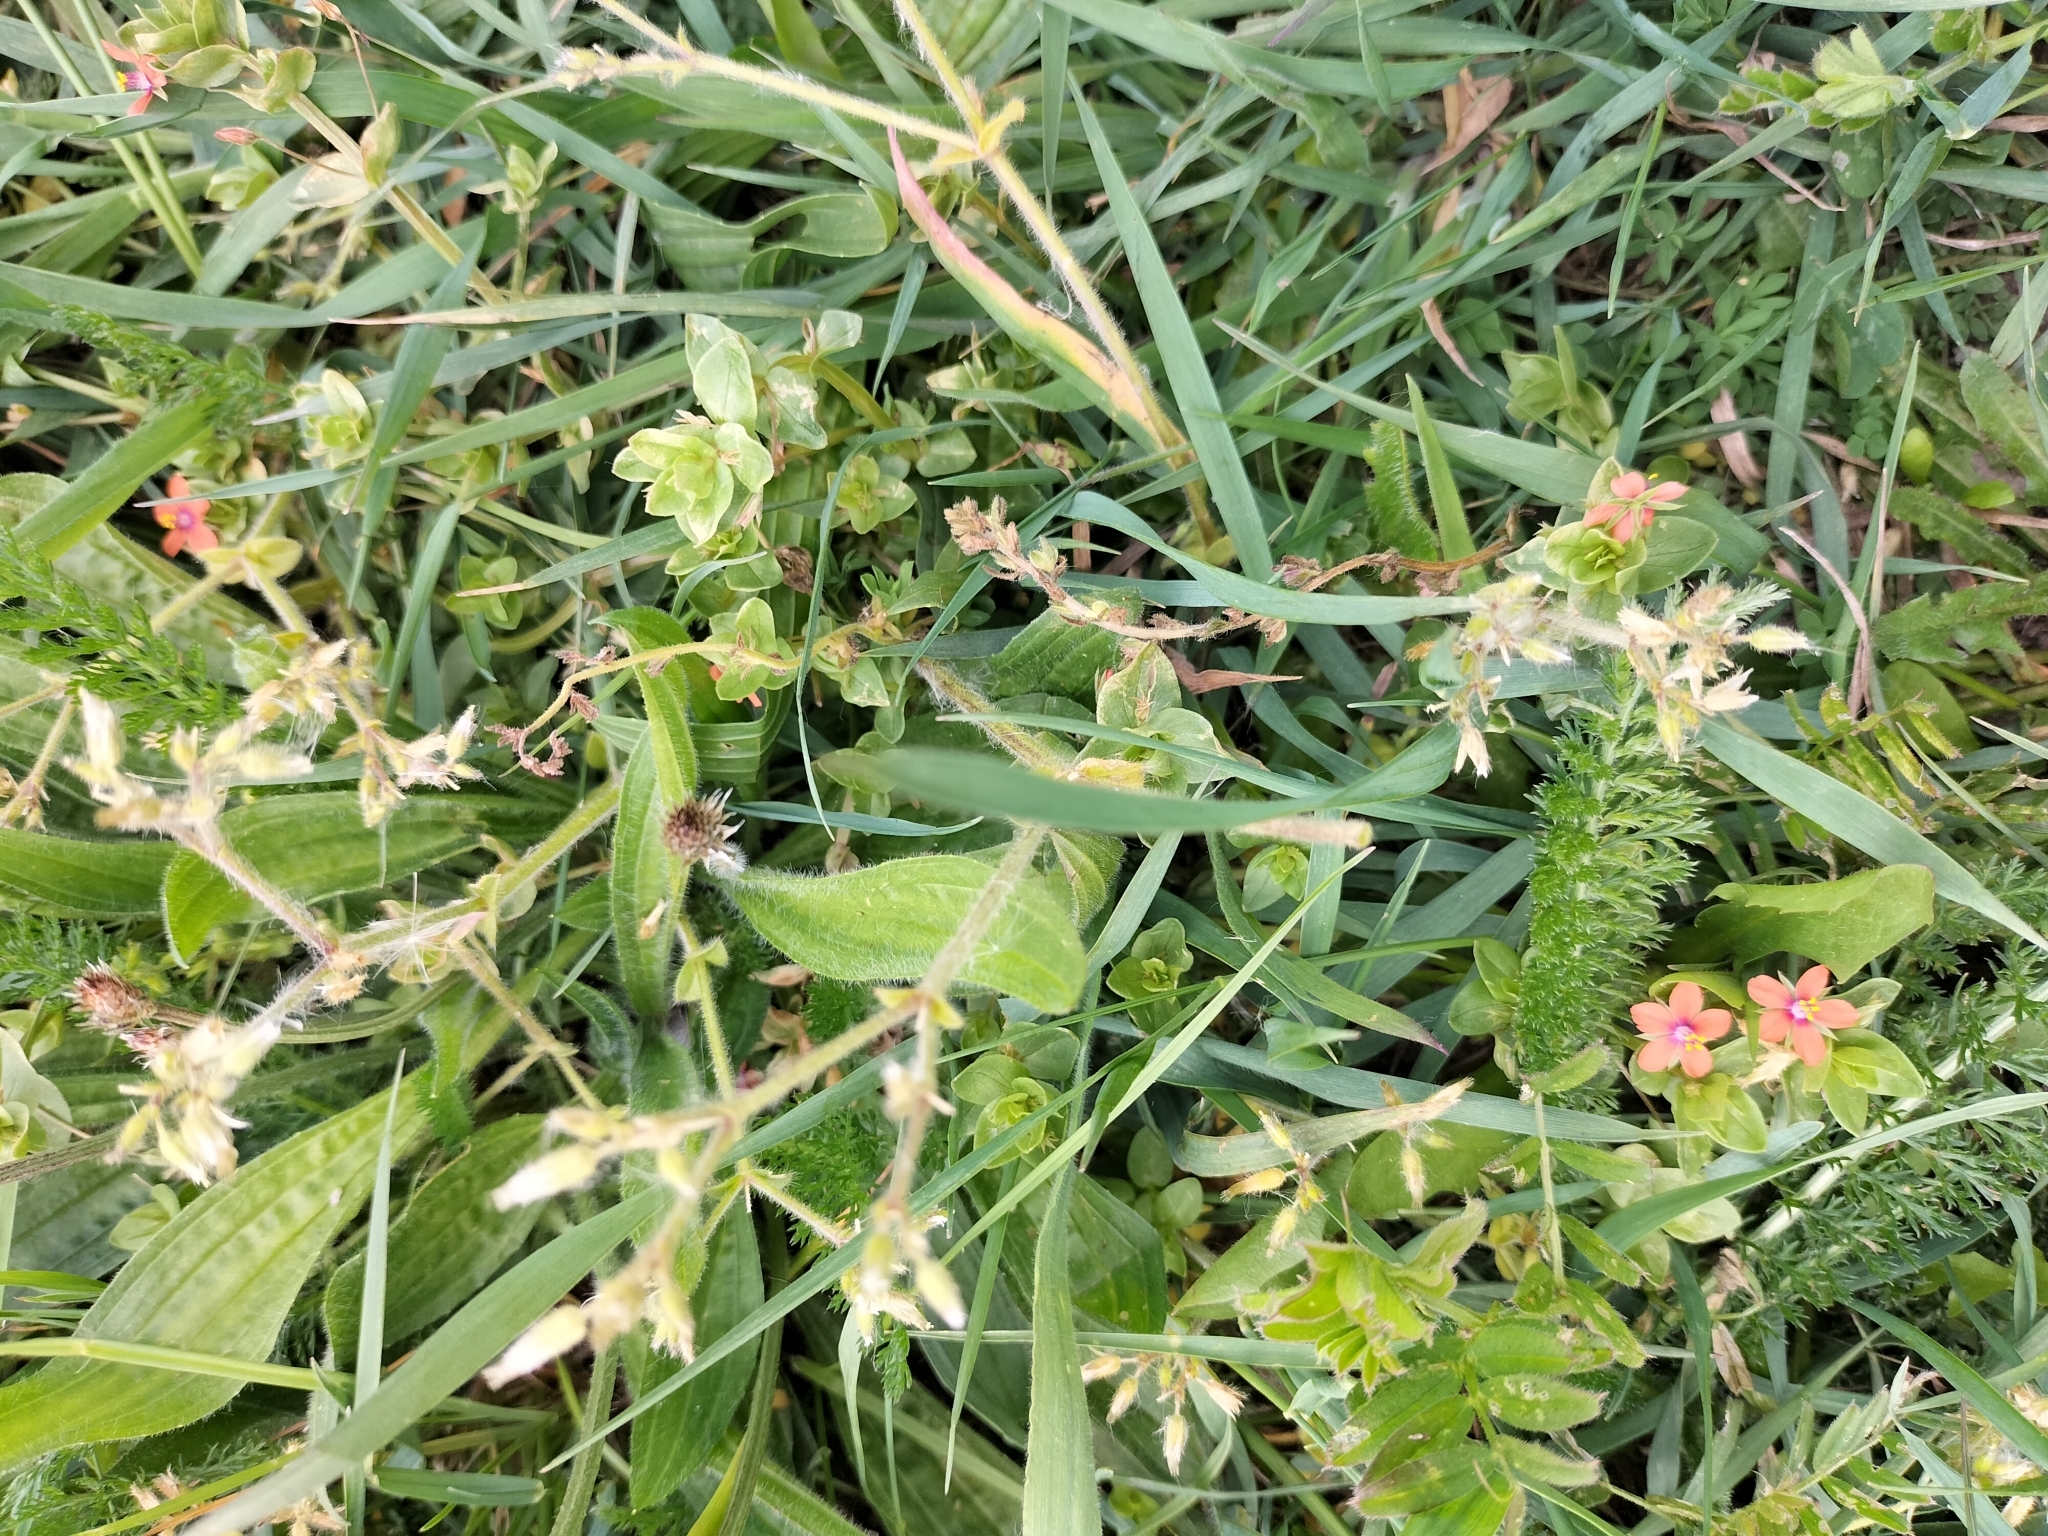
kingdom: Plantae
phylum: Tracheophyta
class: Magnoliopsida
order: Ericales
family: Primulaceae
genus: Lysimachia
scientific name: Lysimachia arvensis
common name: Scarlet pimpernel
